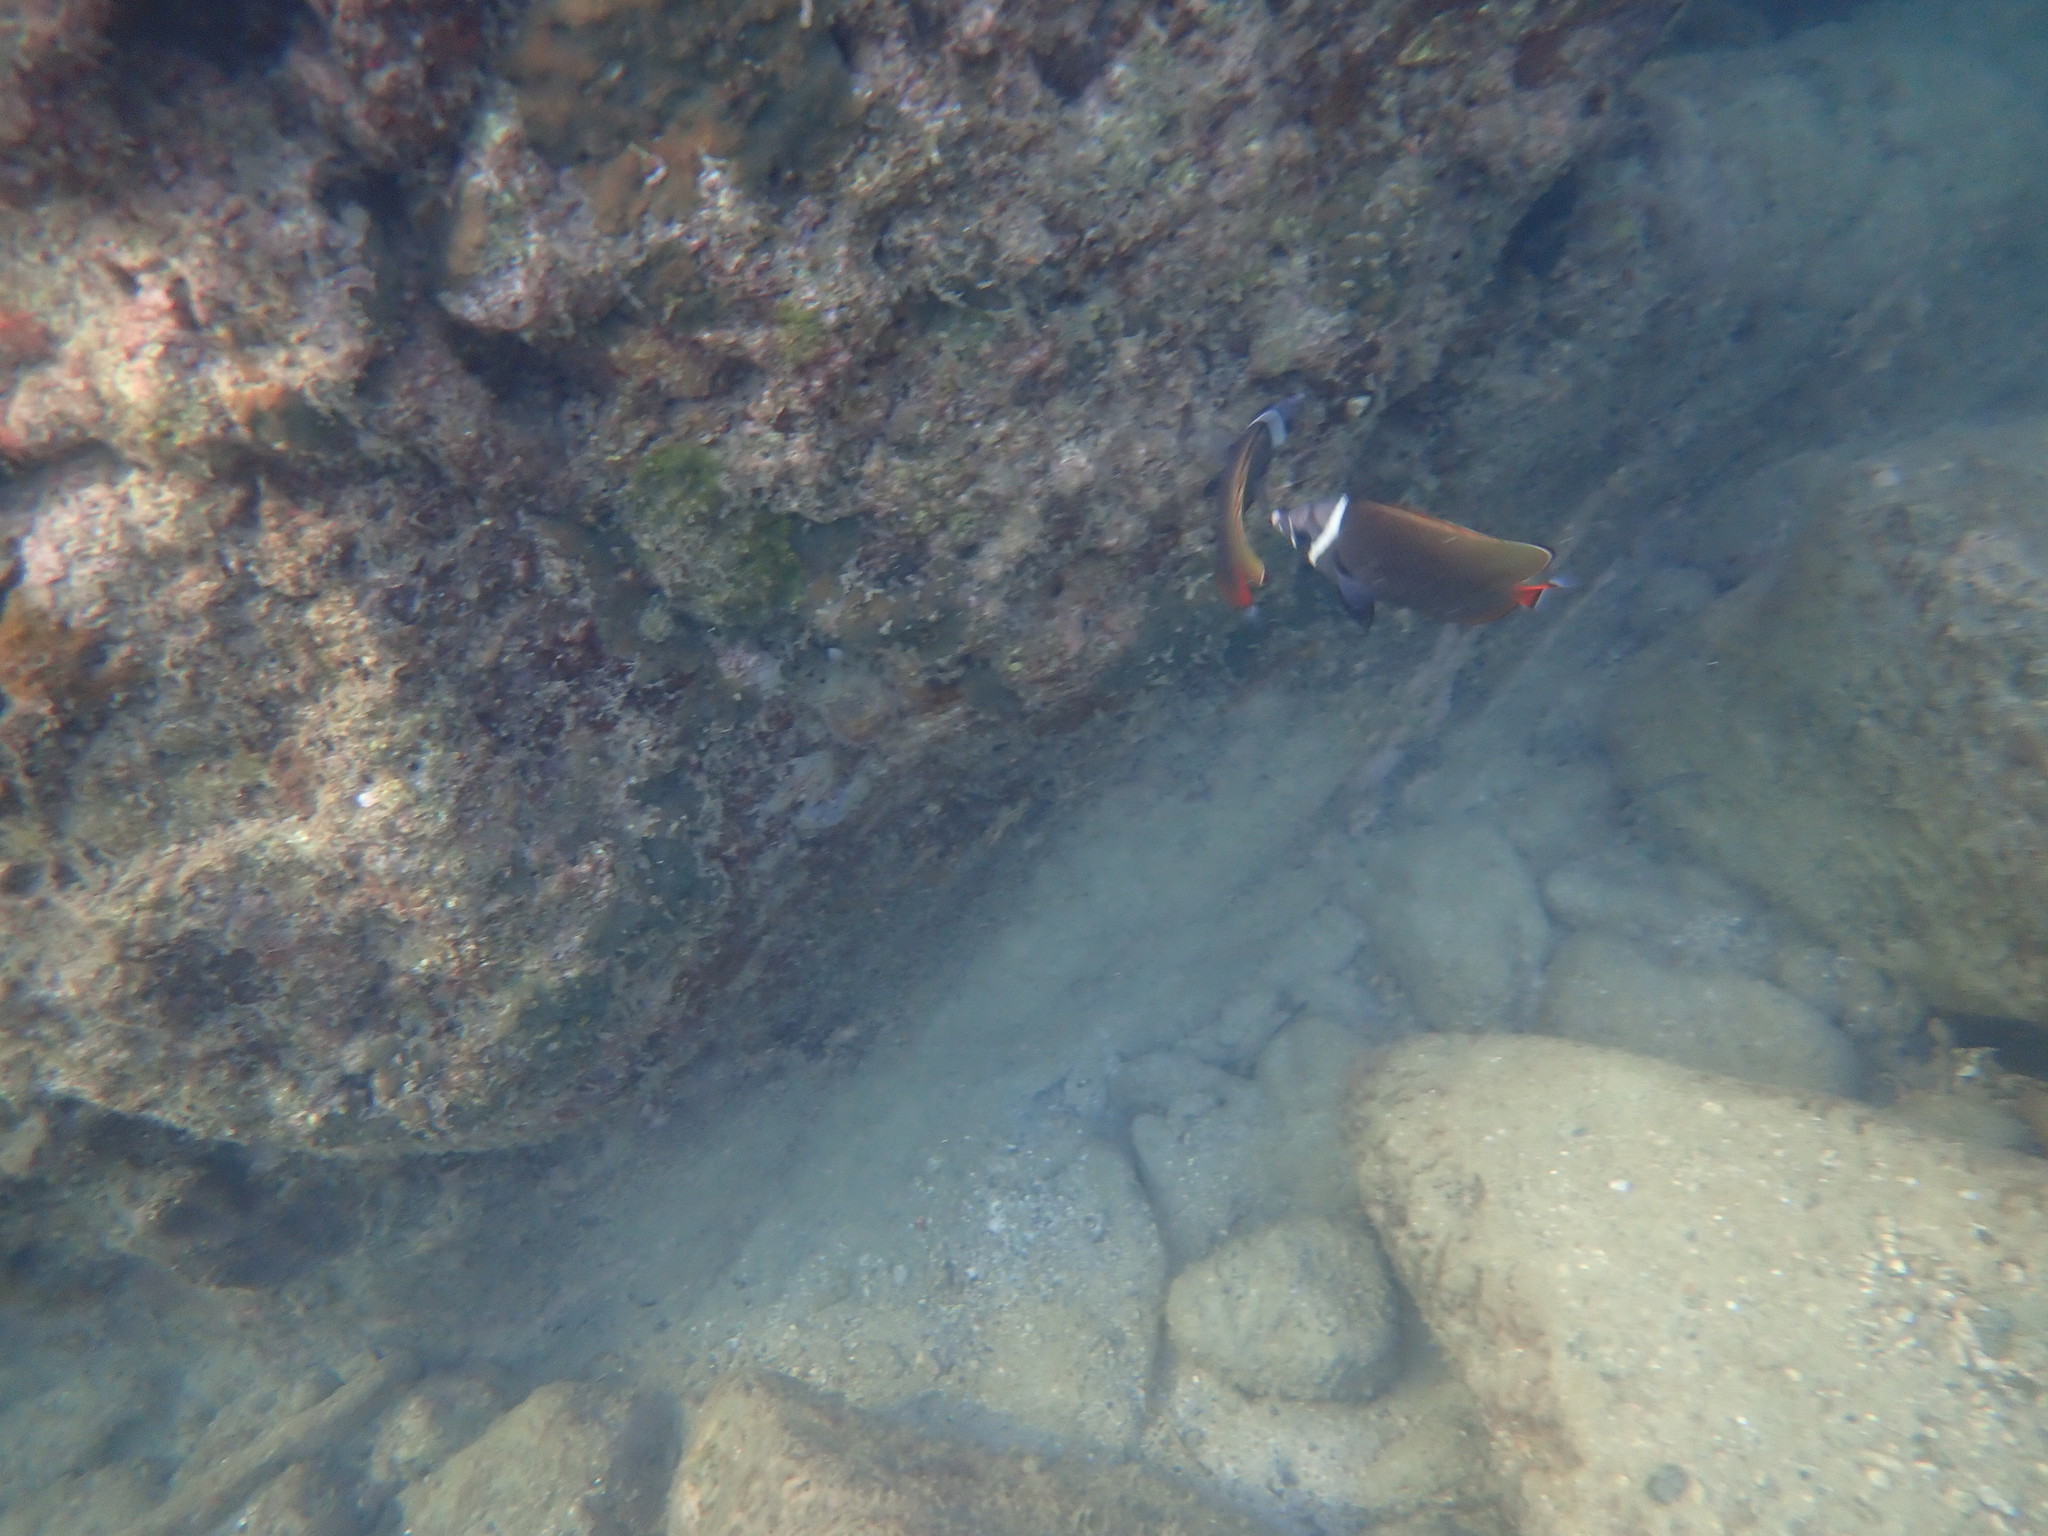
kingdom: Animalia
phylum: Chordata
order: Perciformes
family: Chaetodontidae
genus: Chaetodon
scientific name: Chaetodon collare
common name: Redtail butterflyfish
